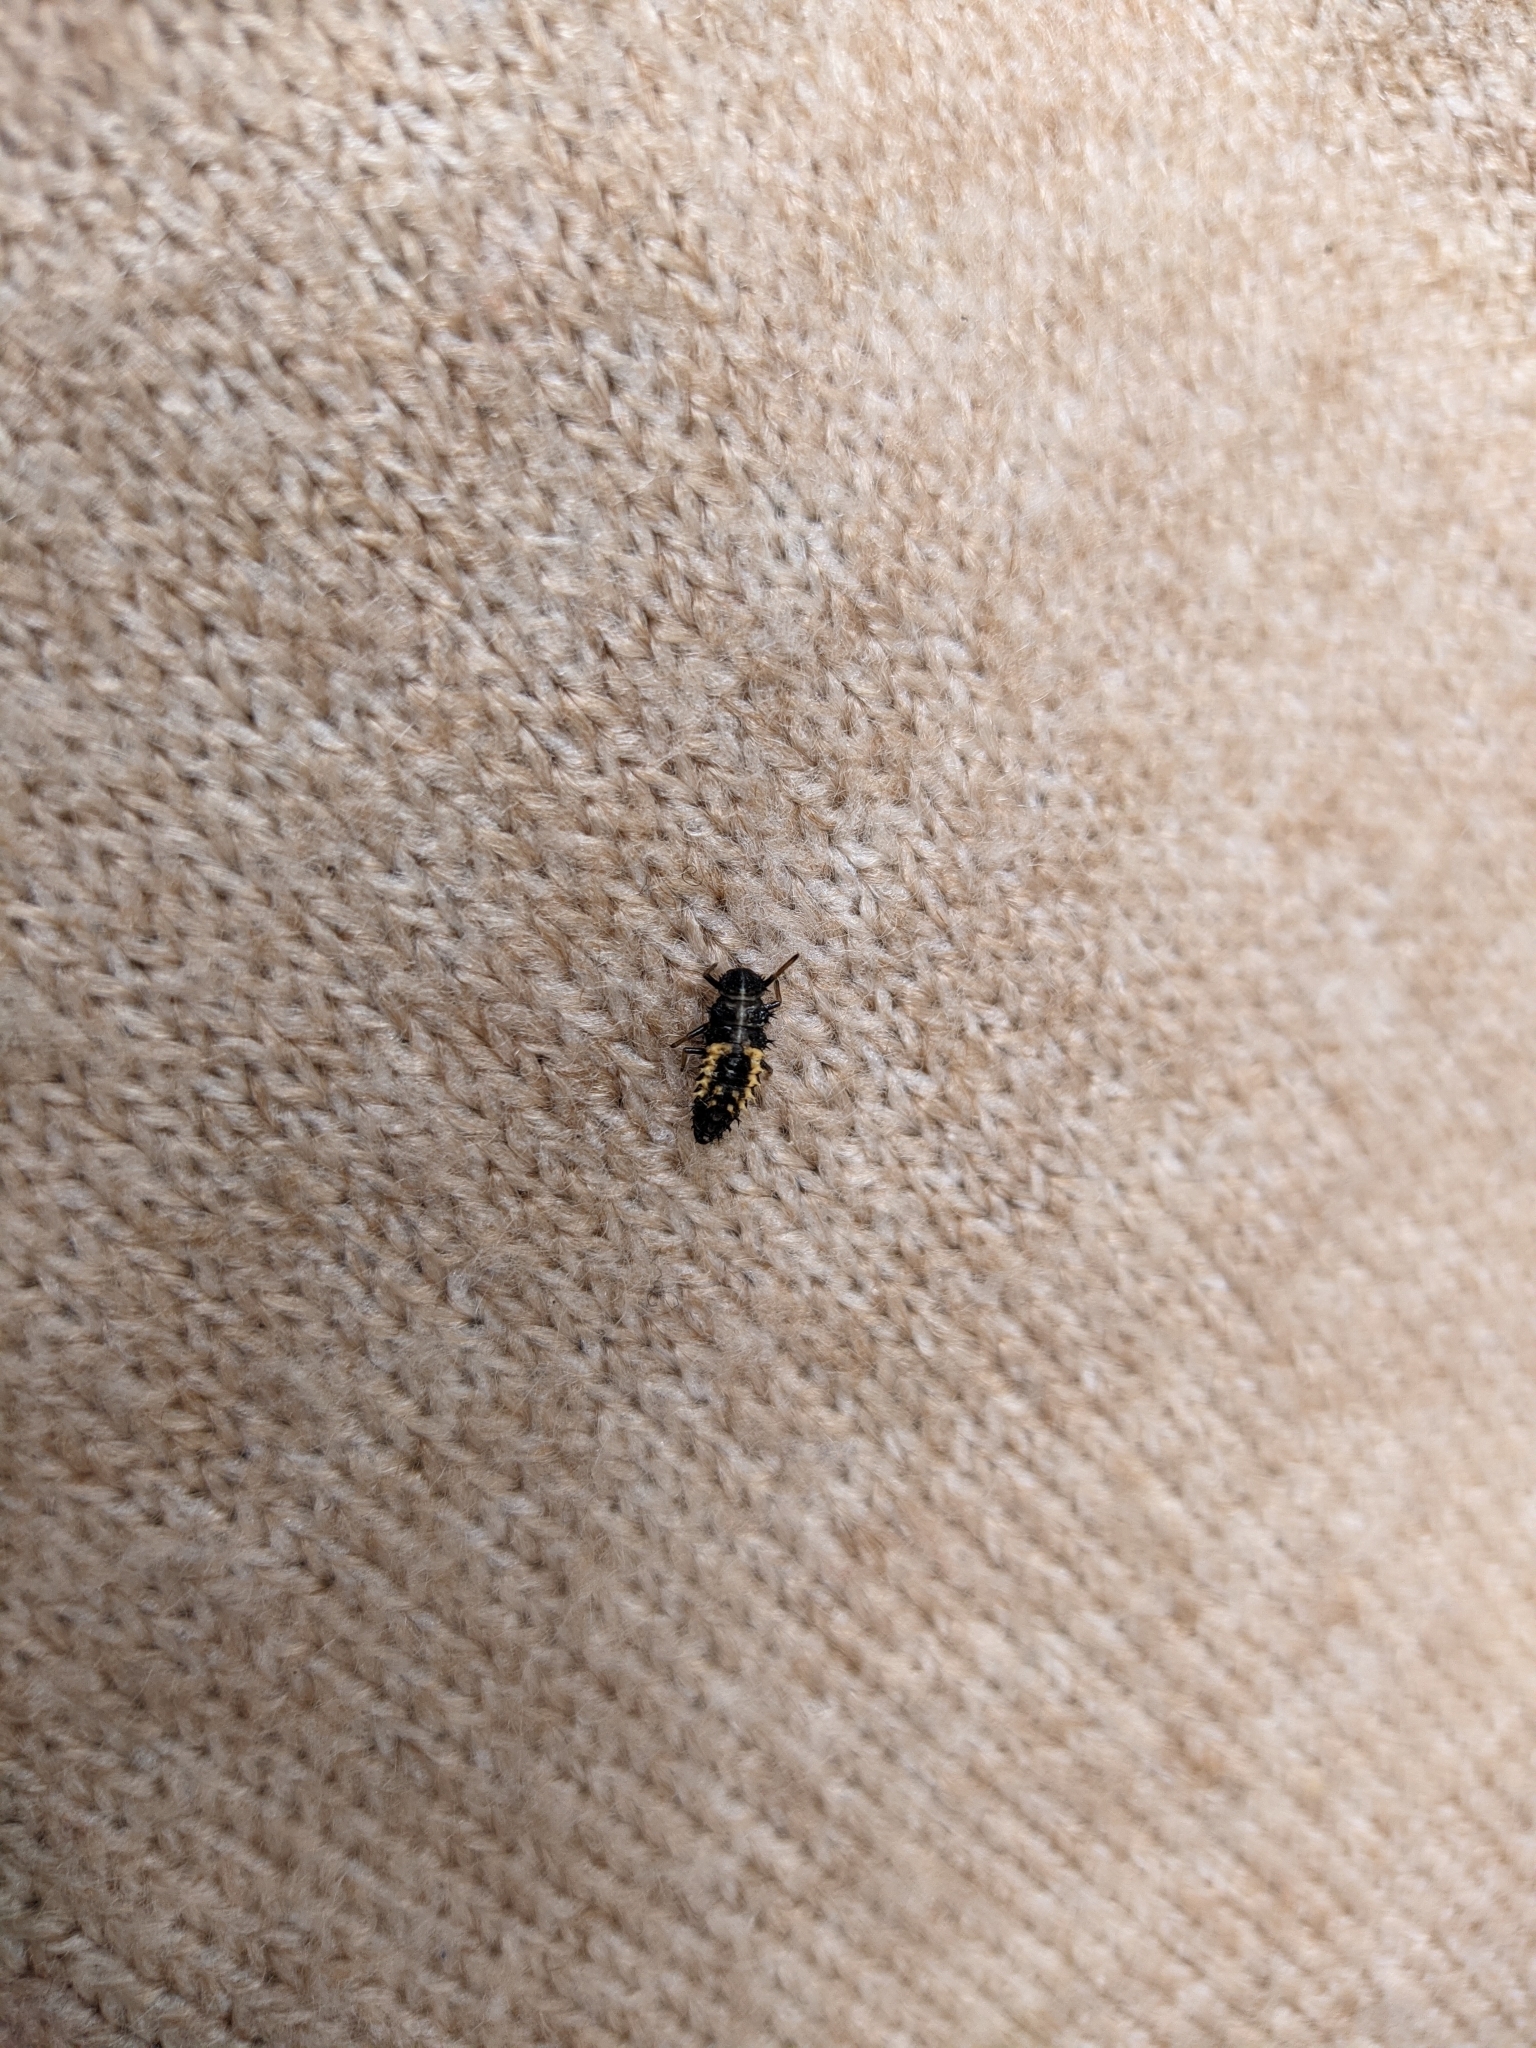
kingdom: Animalia
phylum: Arthropoda
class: Insecta
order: Coleoptera
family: Coccinellidae
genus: Harmonia
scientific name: Harmonia axyridis
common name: Harlequin ladybird
